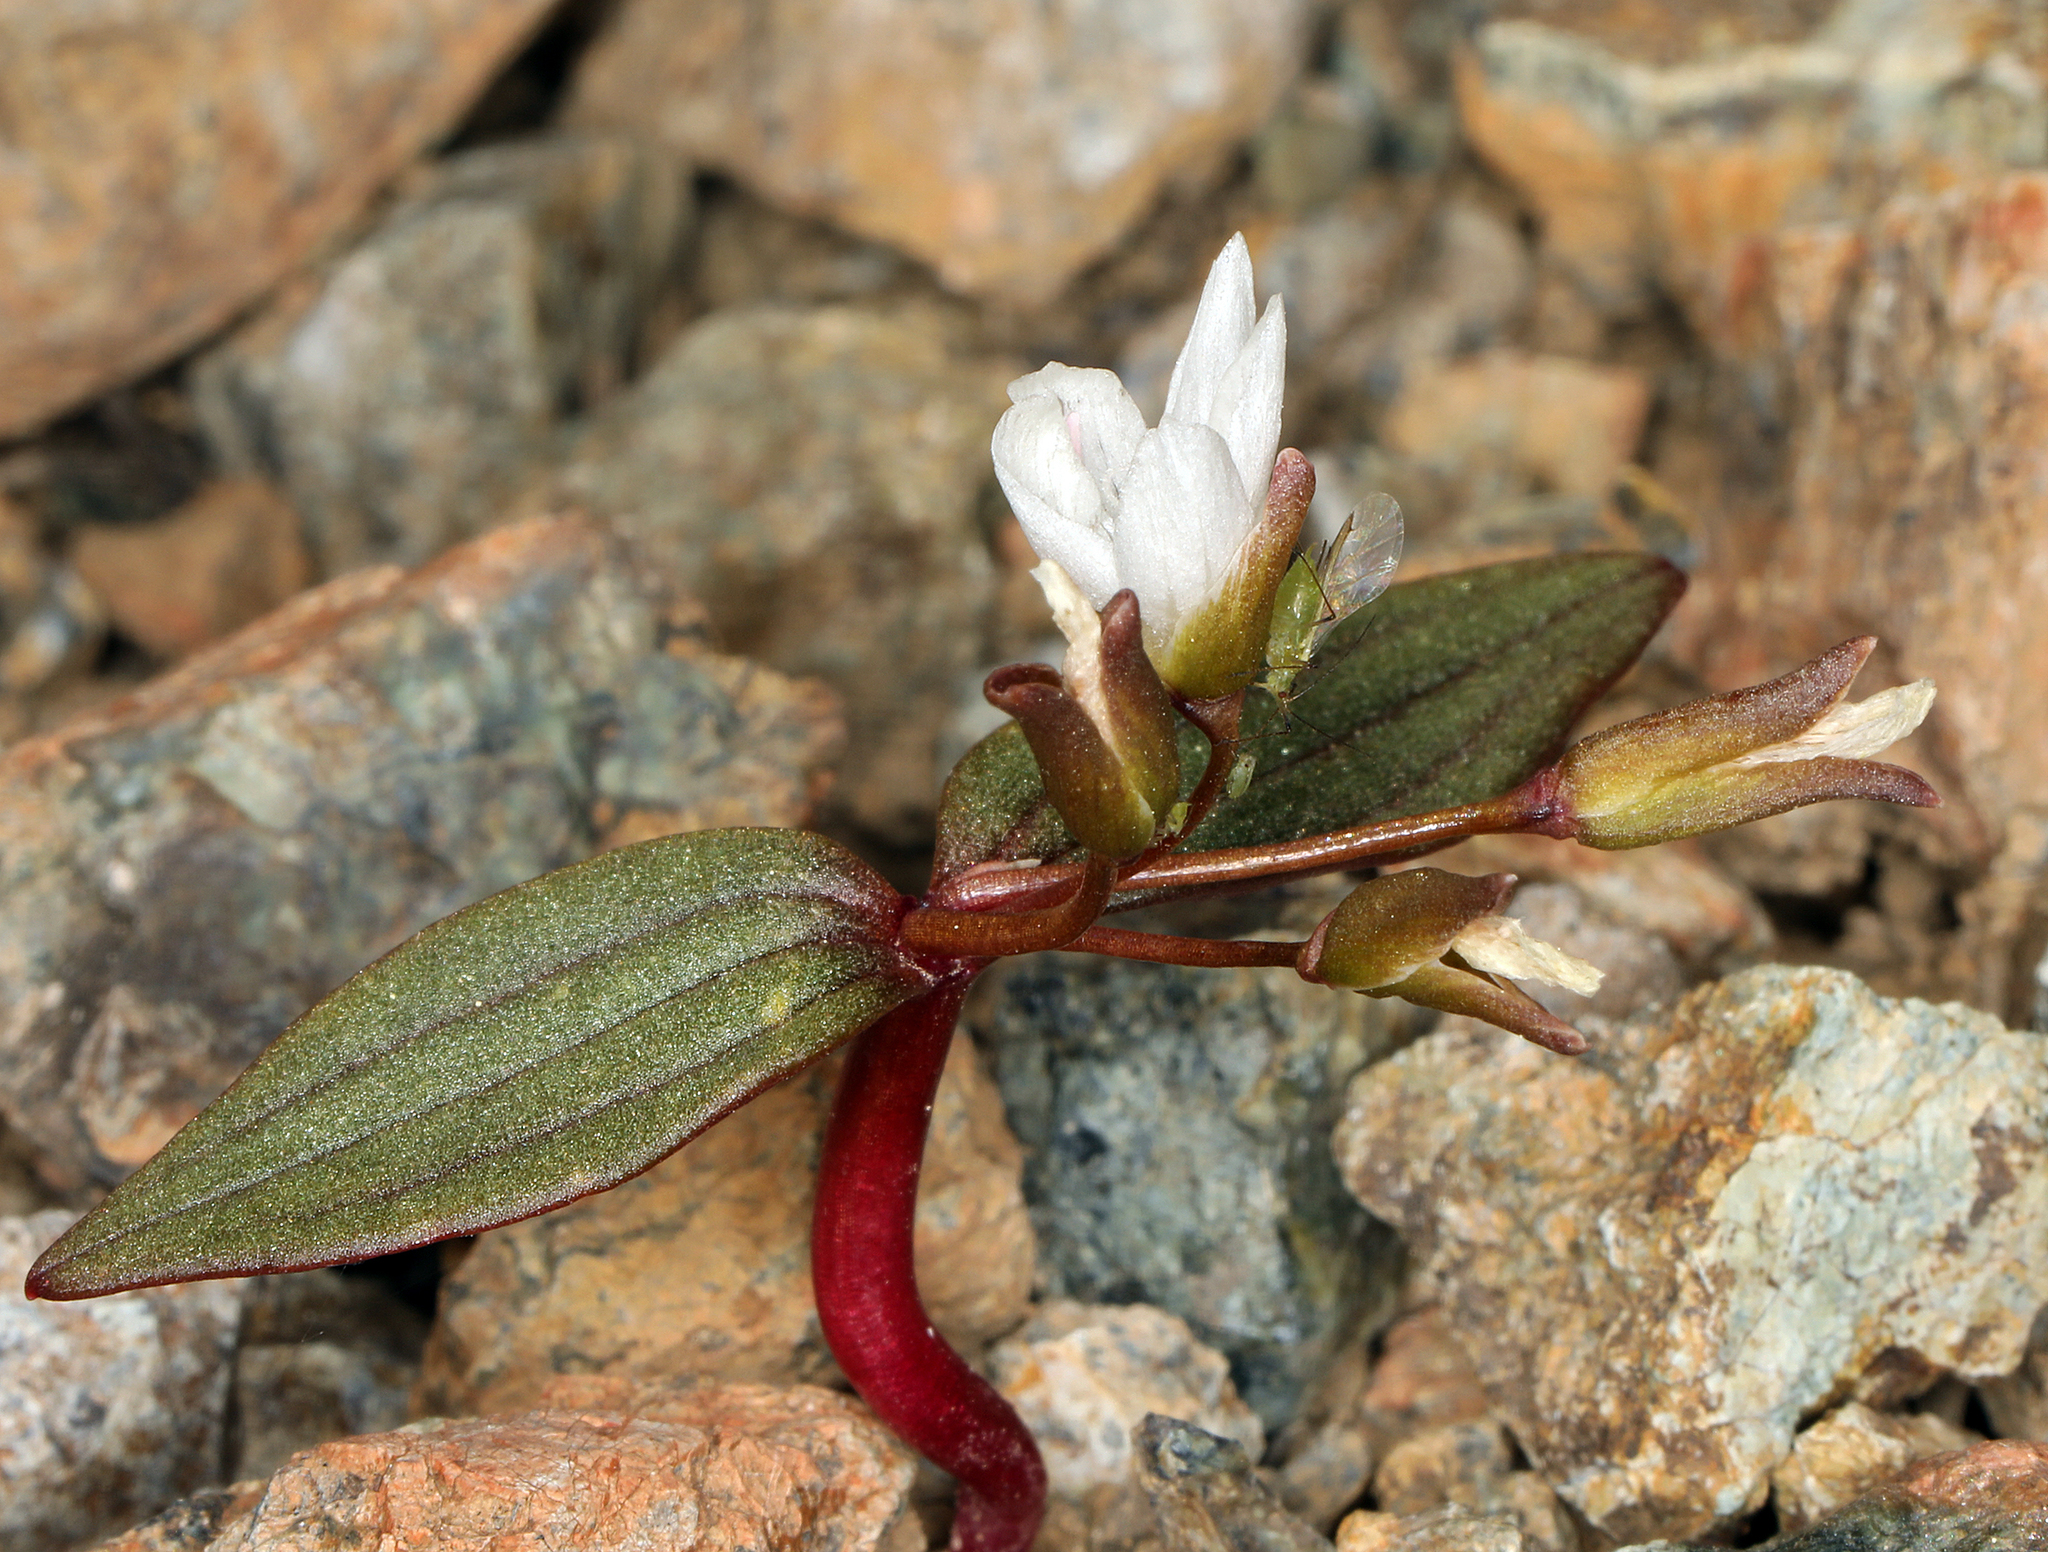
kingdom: Plantae
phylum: Tracheophyta
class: Magnoliopsida
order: Caryophyllales
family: Montiaceae
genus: Claytonia
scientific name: Claytonia obovata
